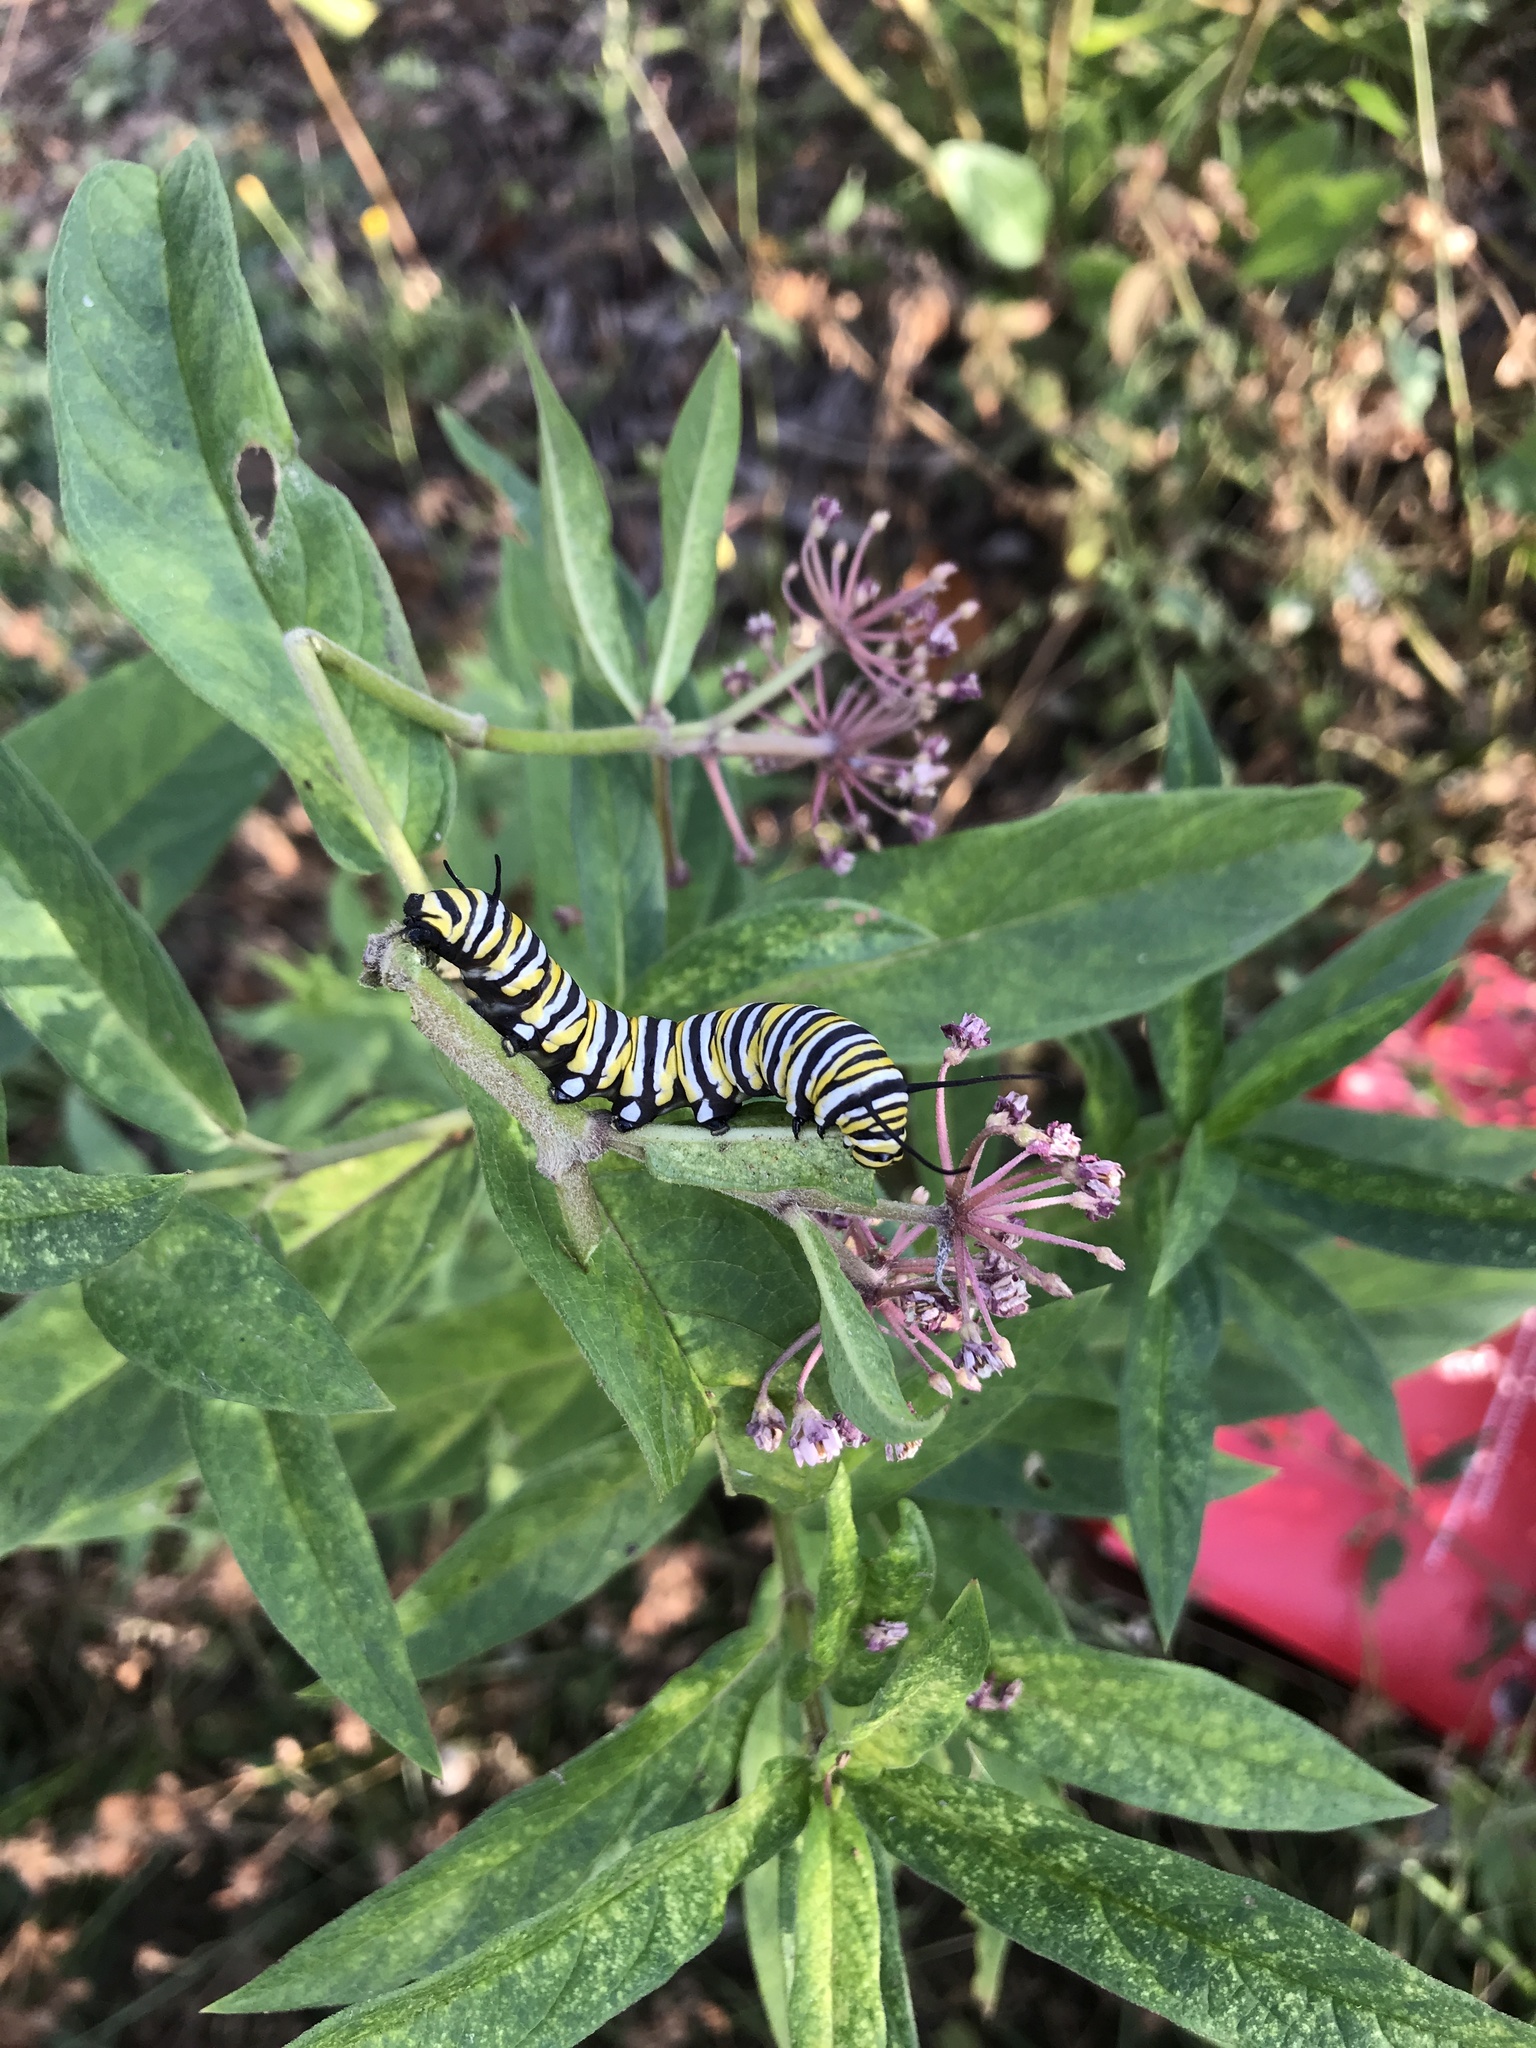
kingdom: Animalia
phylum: Arthropoda
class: Insecta
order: Lepidoptera
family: Nymphalidae
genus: Danaus
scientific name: Danaus plexippus
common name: Monarch
